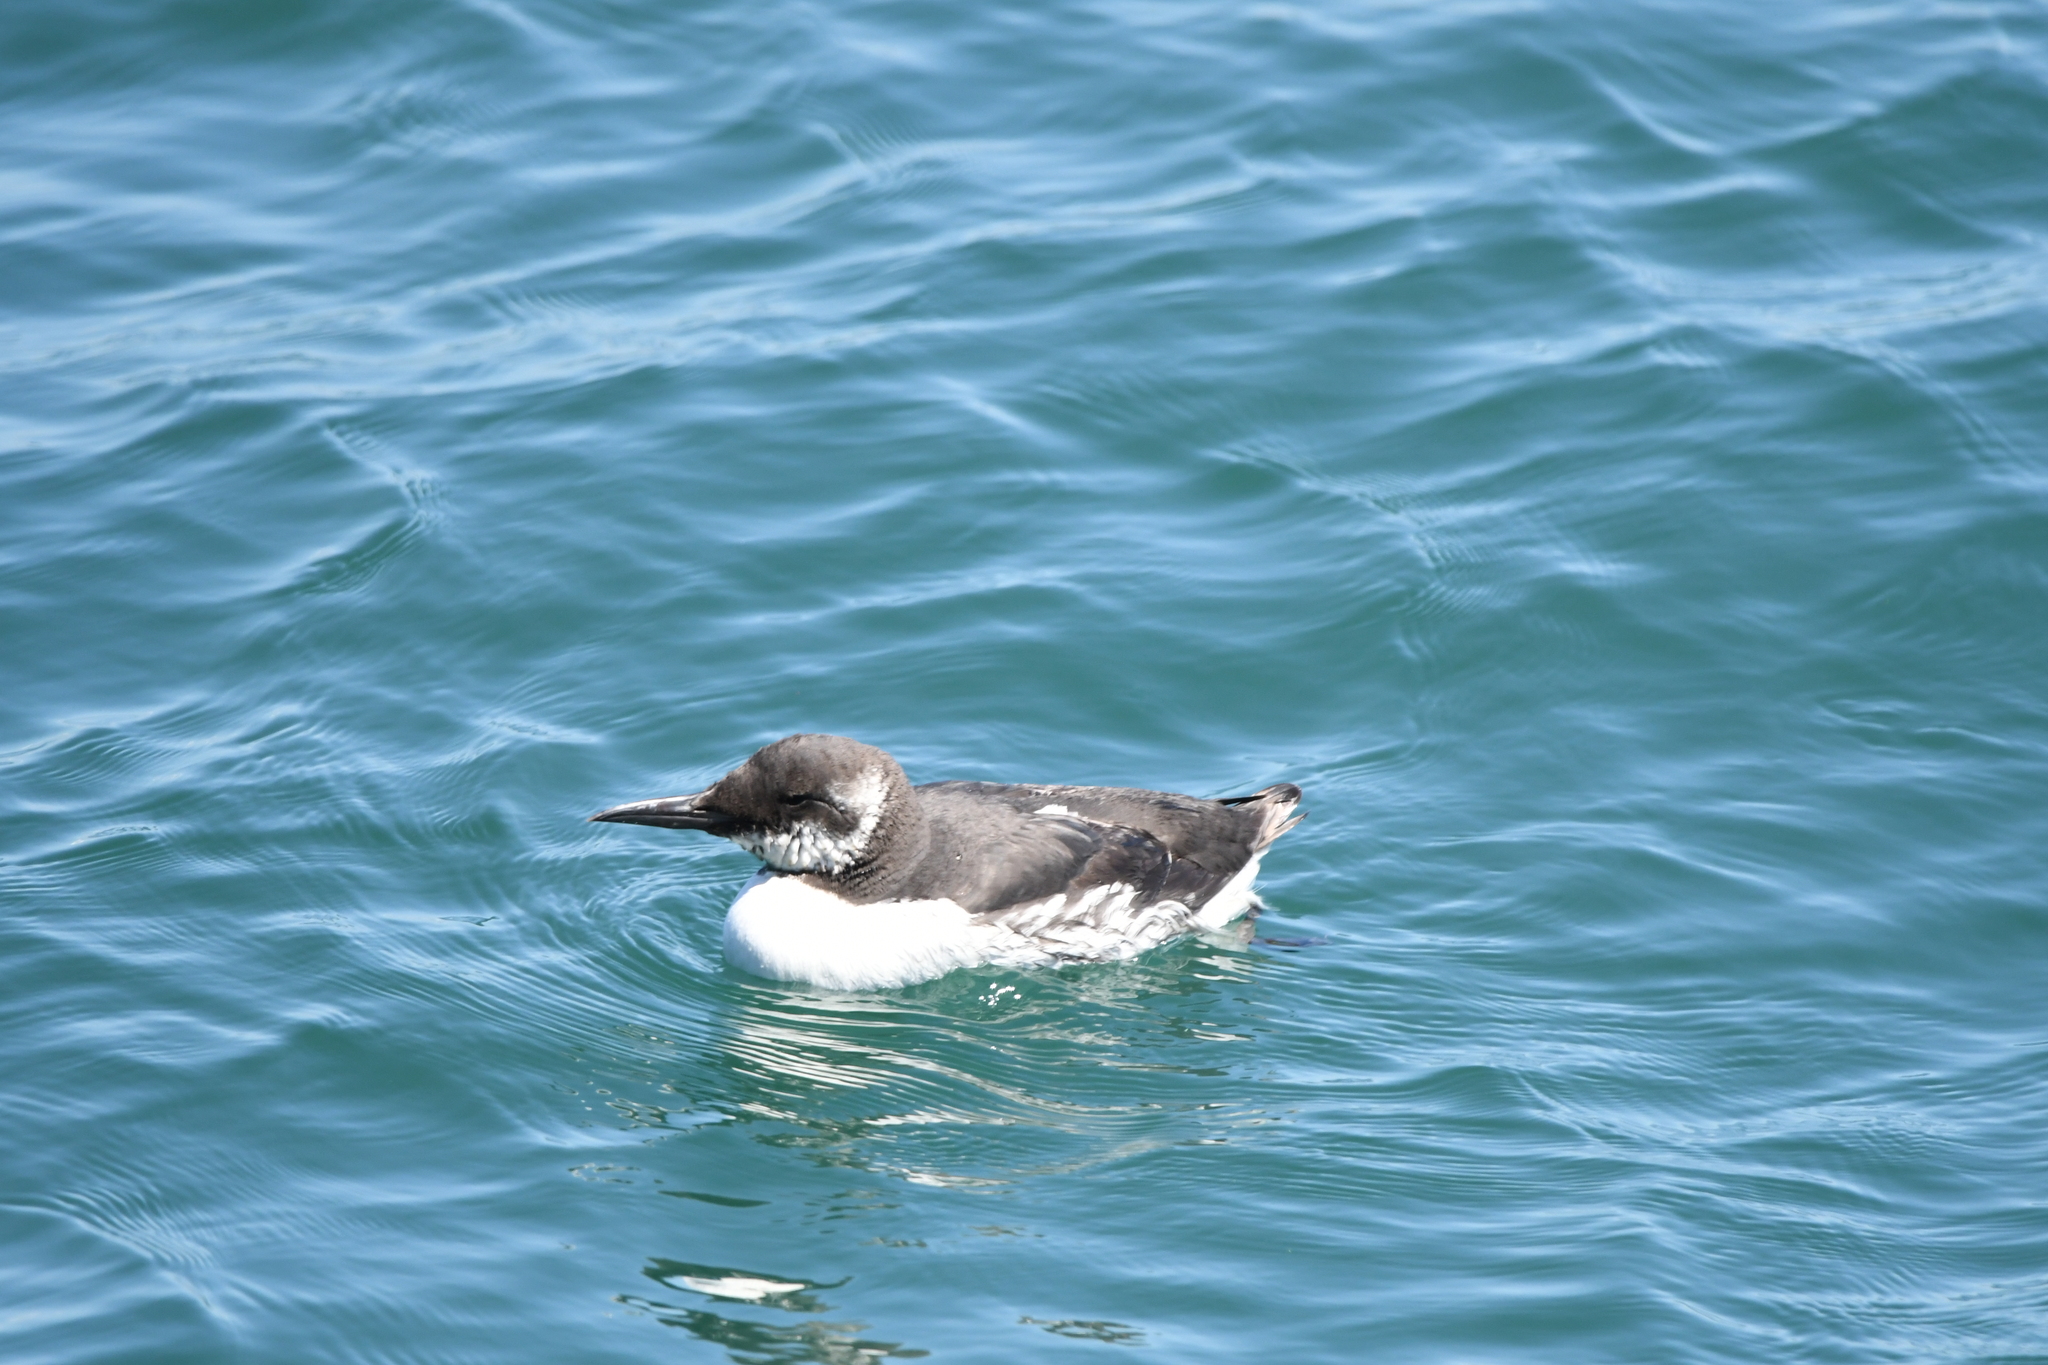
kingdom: Animalia
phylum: Chordata
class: Aves
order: Charadriiformes
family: Alcidae
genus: Uria
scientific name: Uria aalge
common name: Common murre
